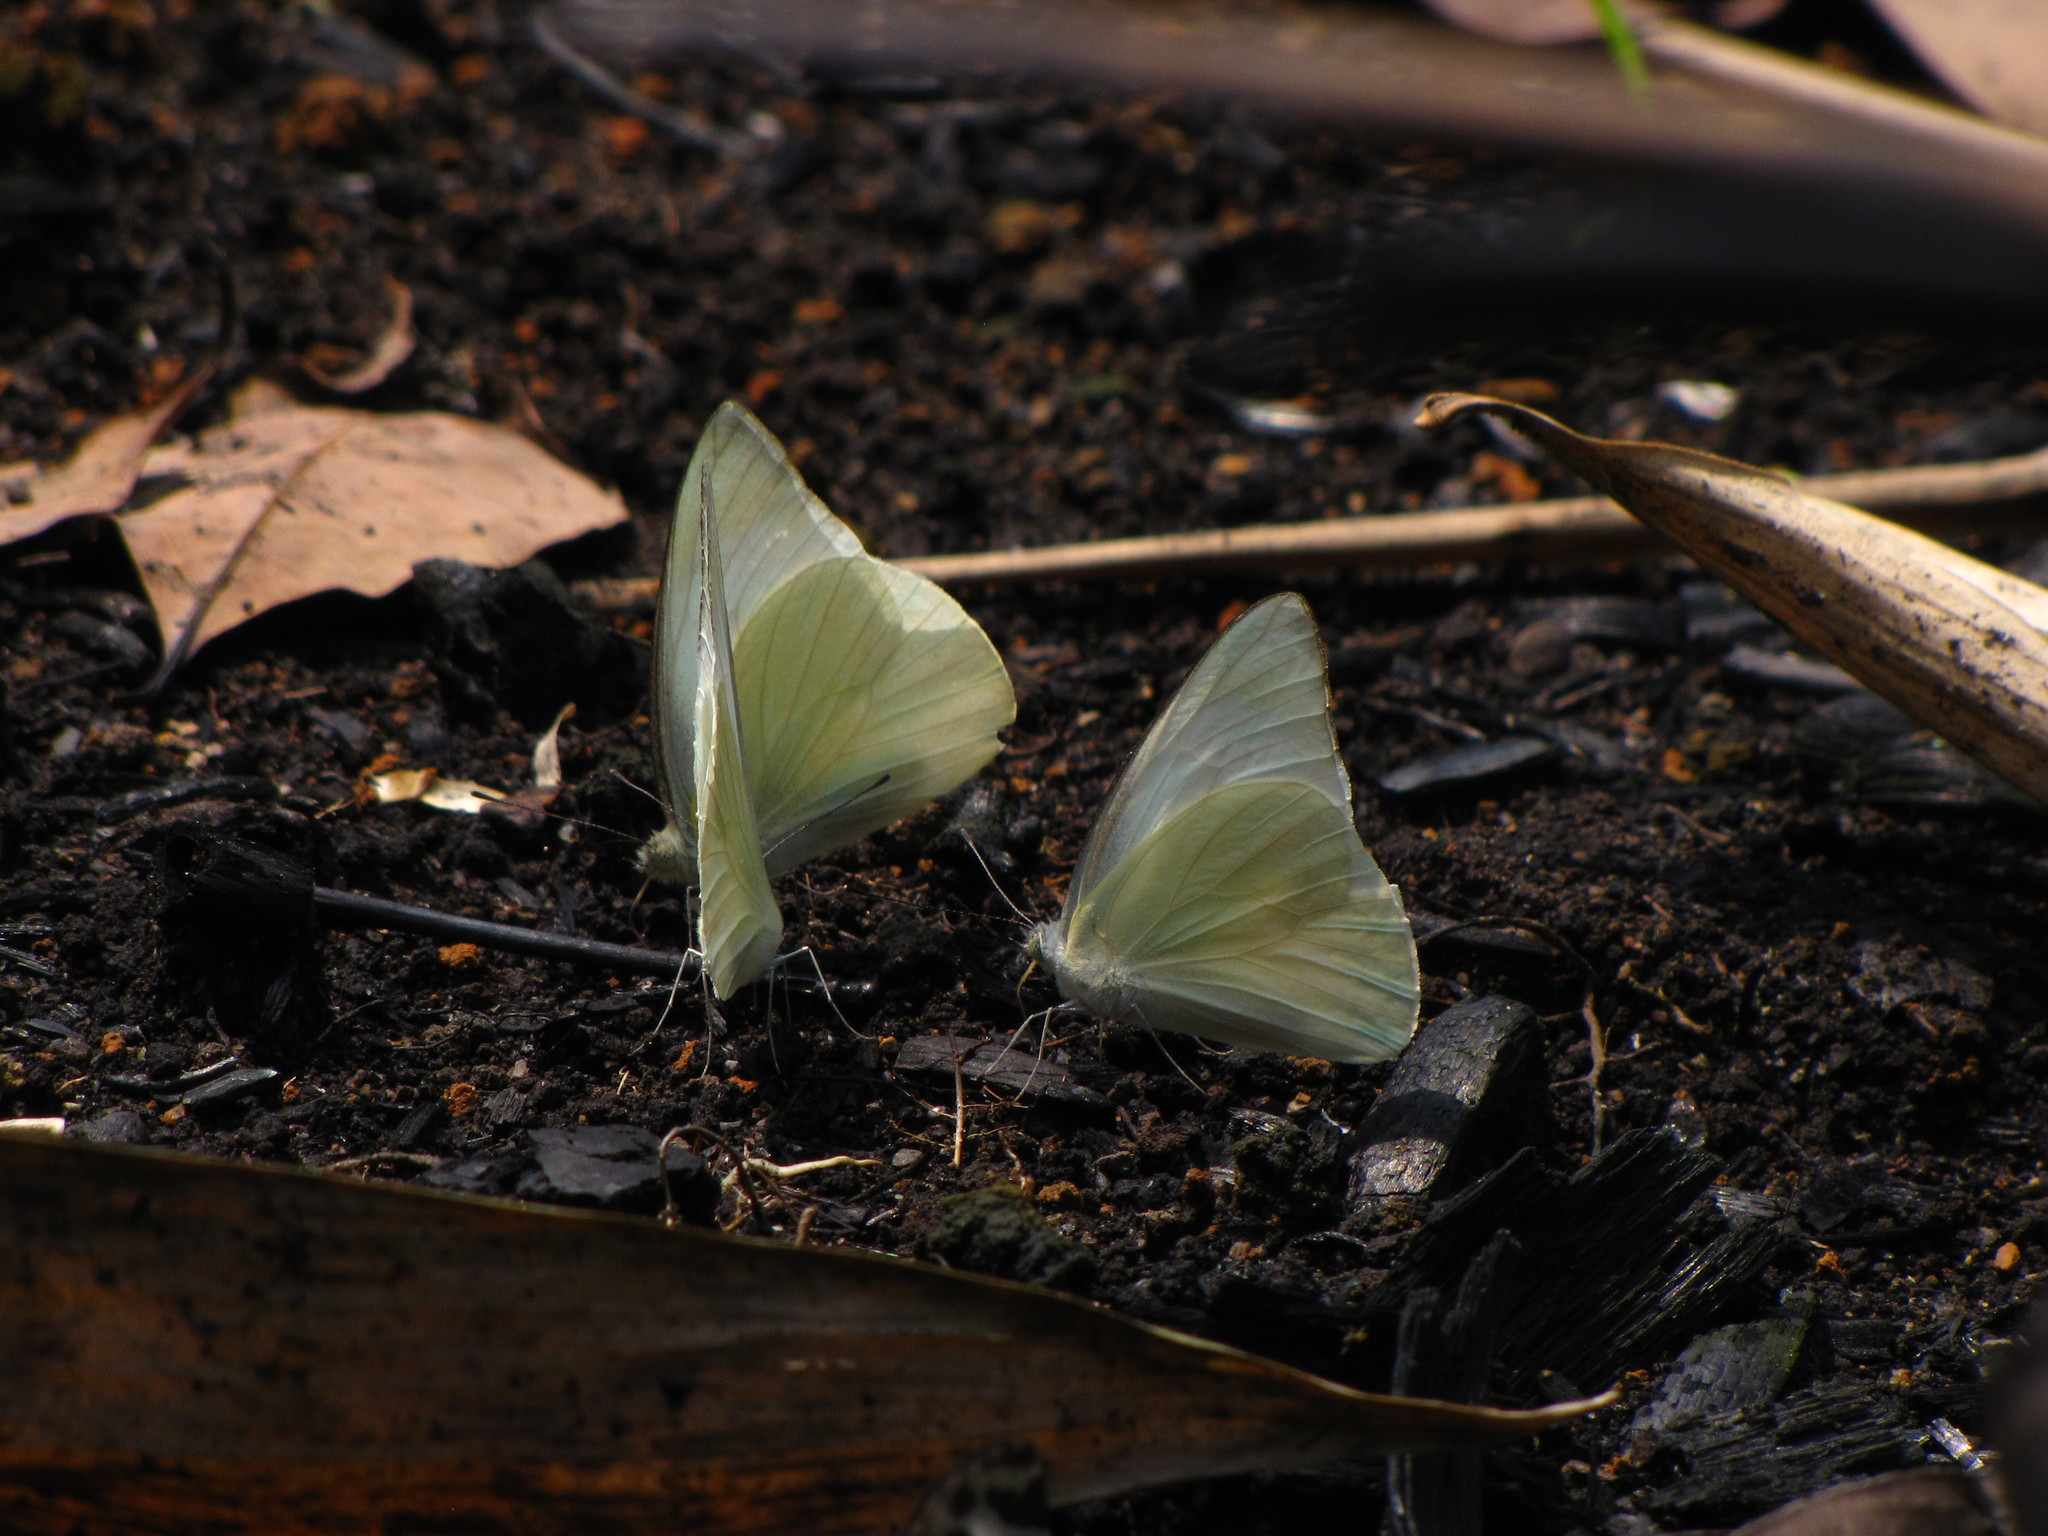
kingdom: Animalia
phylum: Arthropoda
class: Insecta
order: Lepidoptera
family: Pieridae
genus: Appias
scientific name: Appias albina
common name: Common albatross
